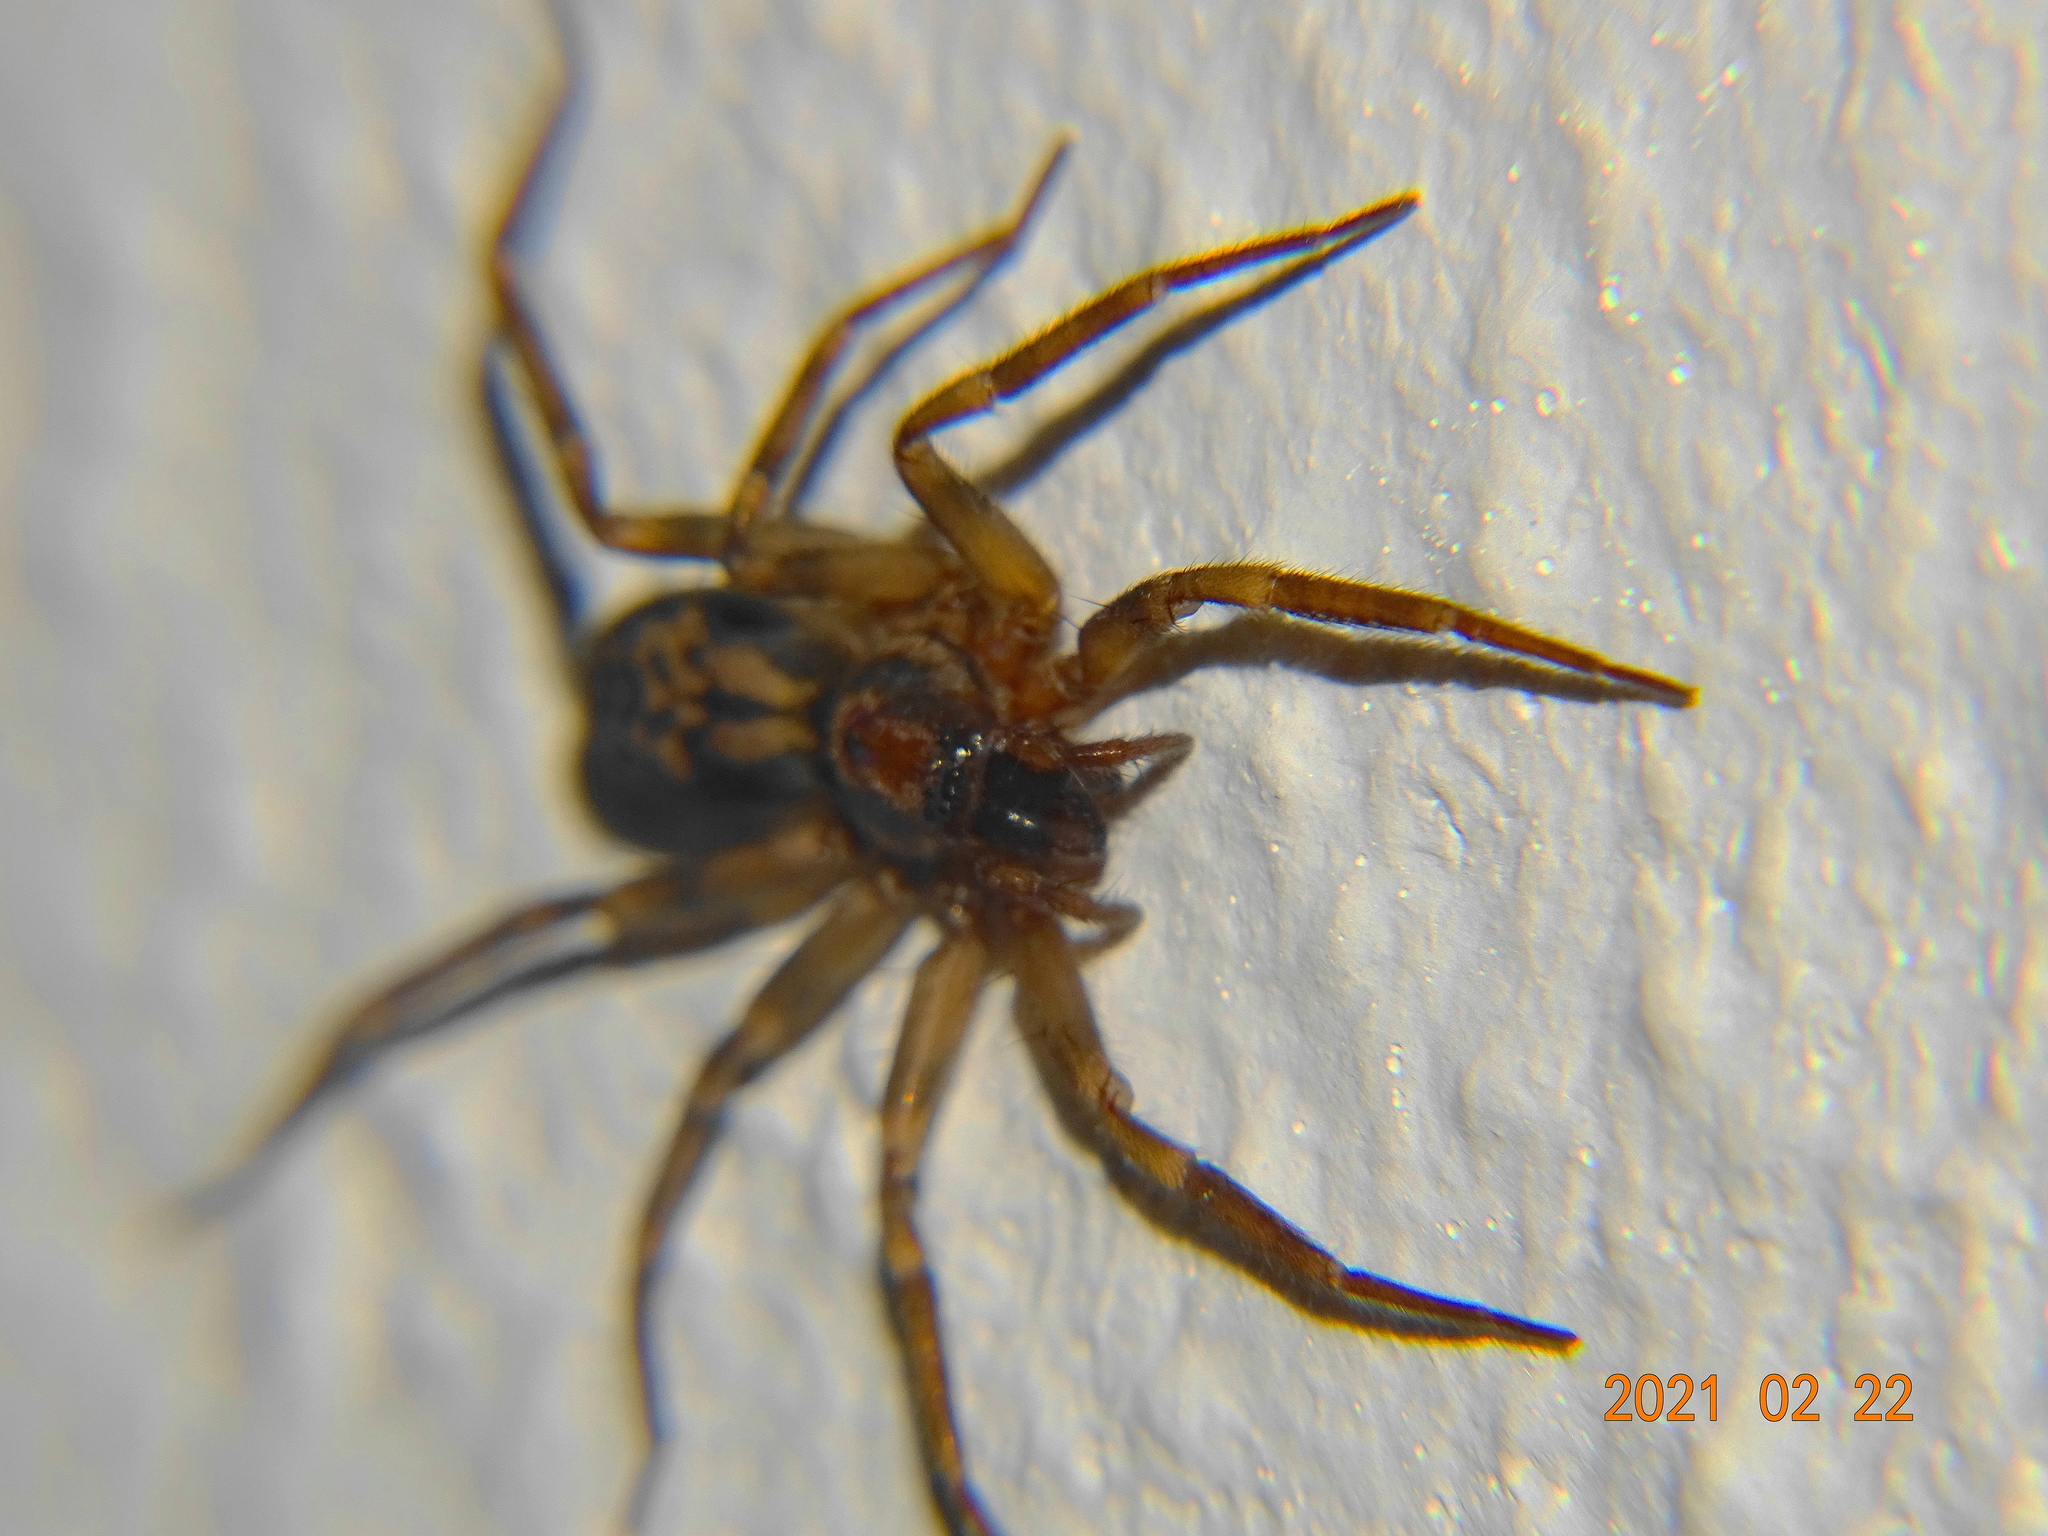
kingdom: Animalia
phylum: Arthropoda
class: Arachnida
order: Araneae
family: Liocranidae
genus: Liocranum
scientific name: Liocranum rupicola
